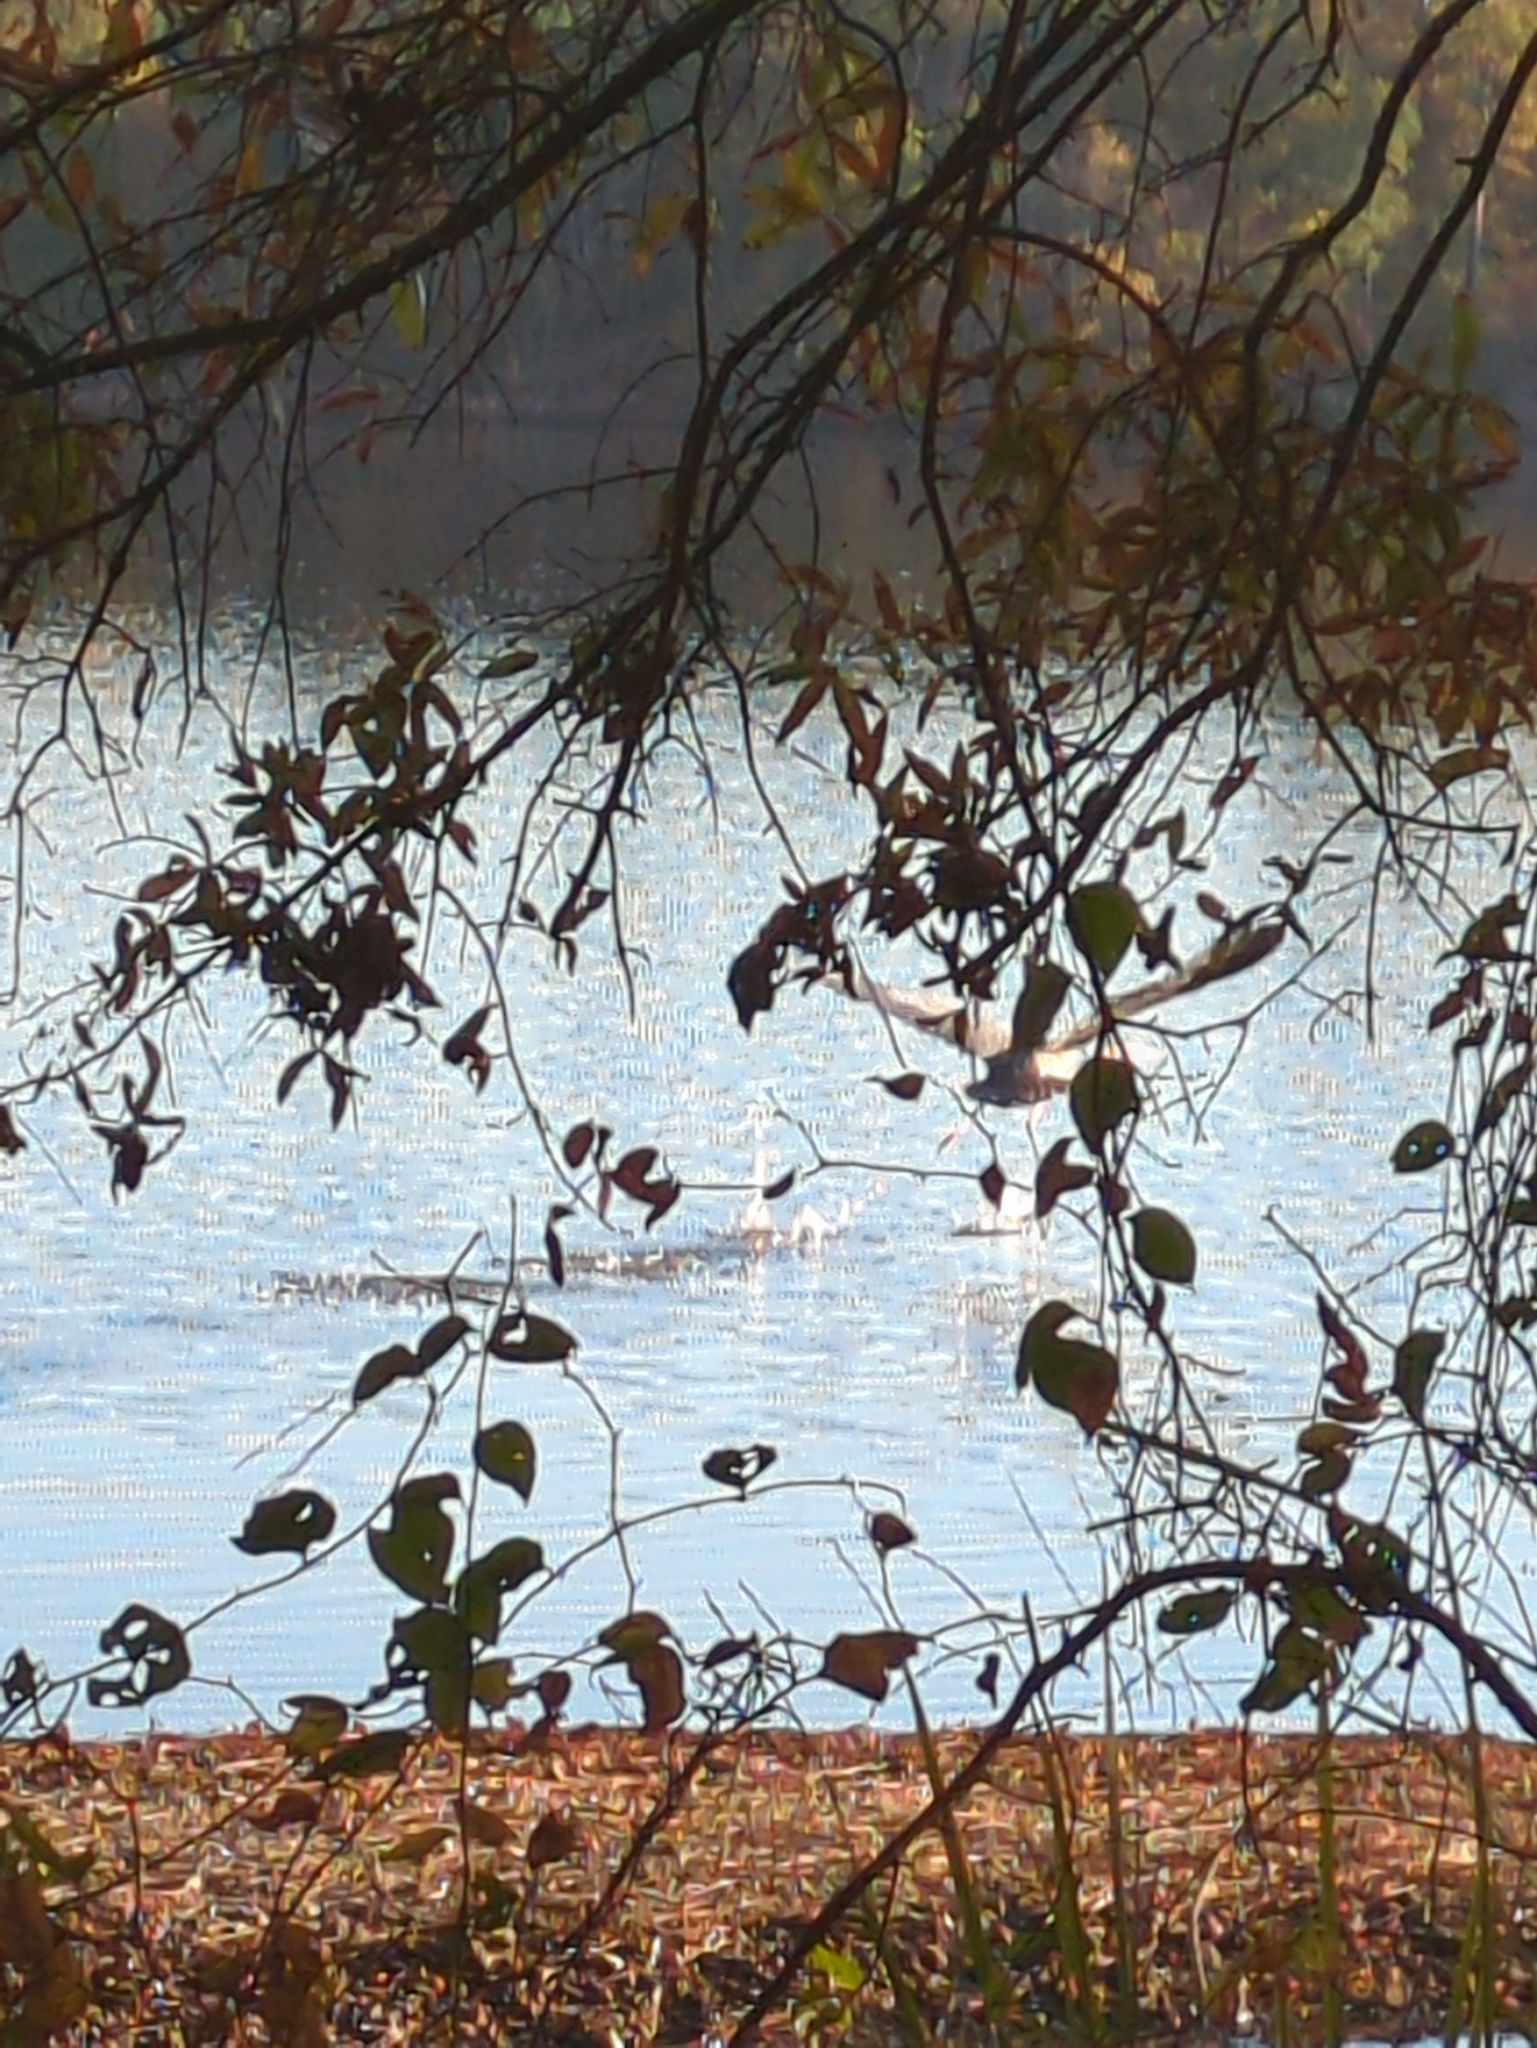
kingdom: Animalia
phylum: Chordata
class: Aves
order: Pelecaniformes
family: Ardeidae
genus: Ardea
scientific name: Ardea herodias
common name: Great blue heron
